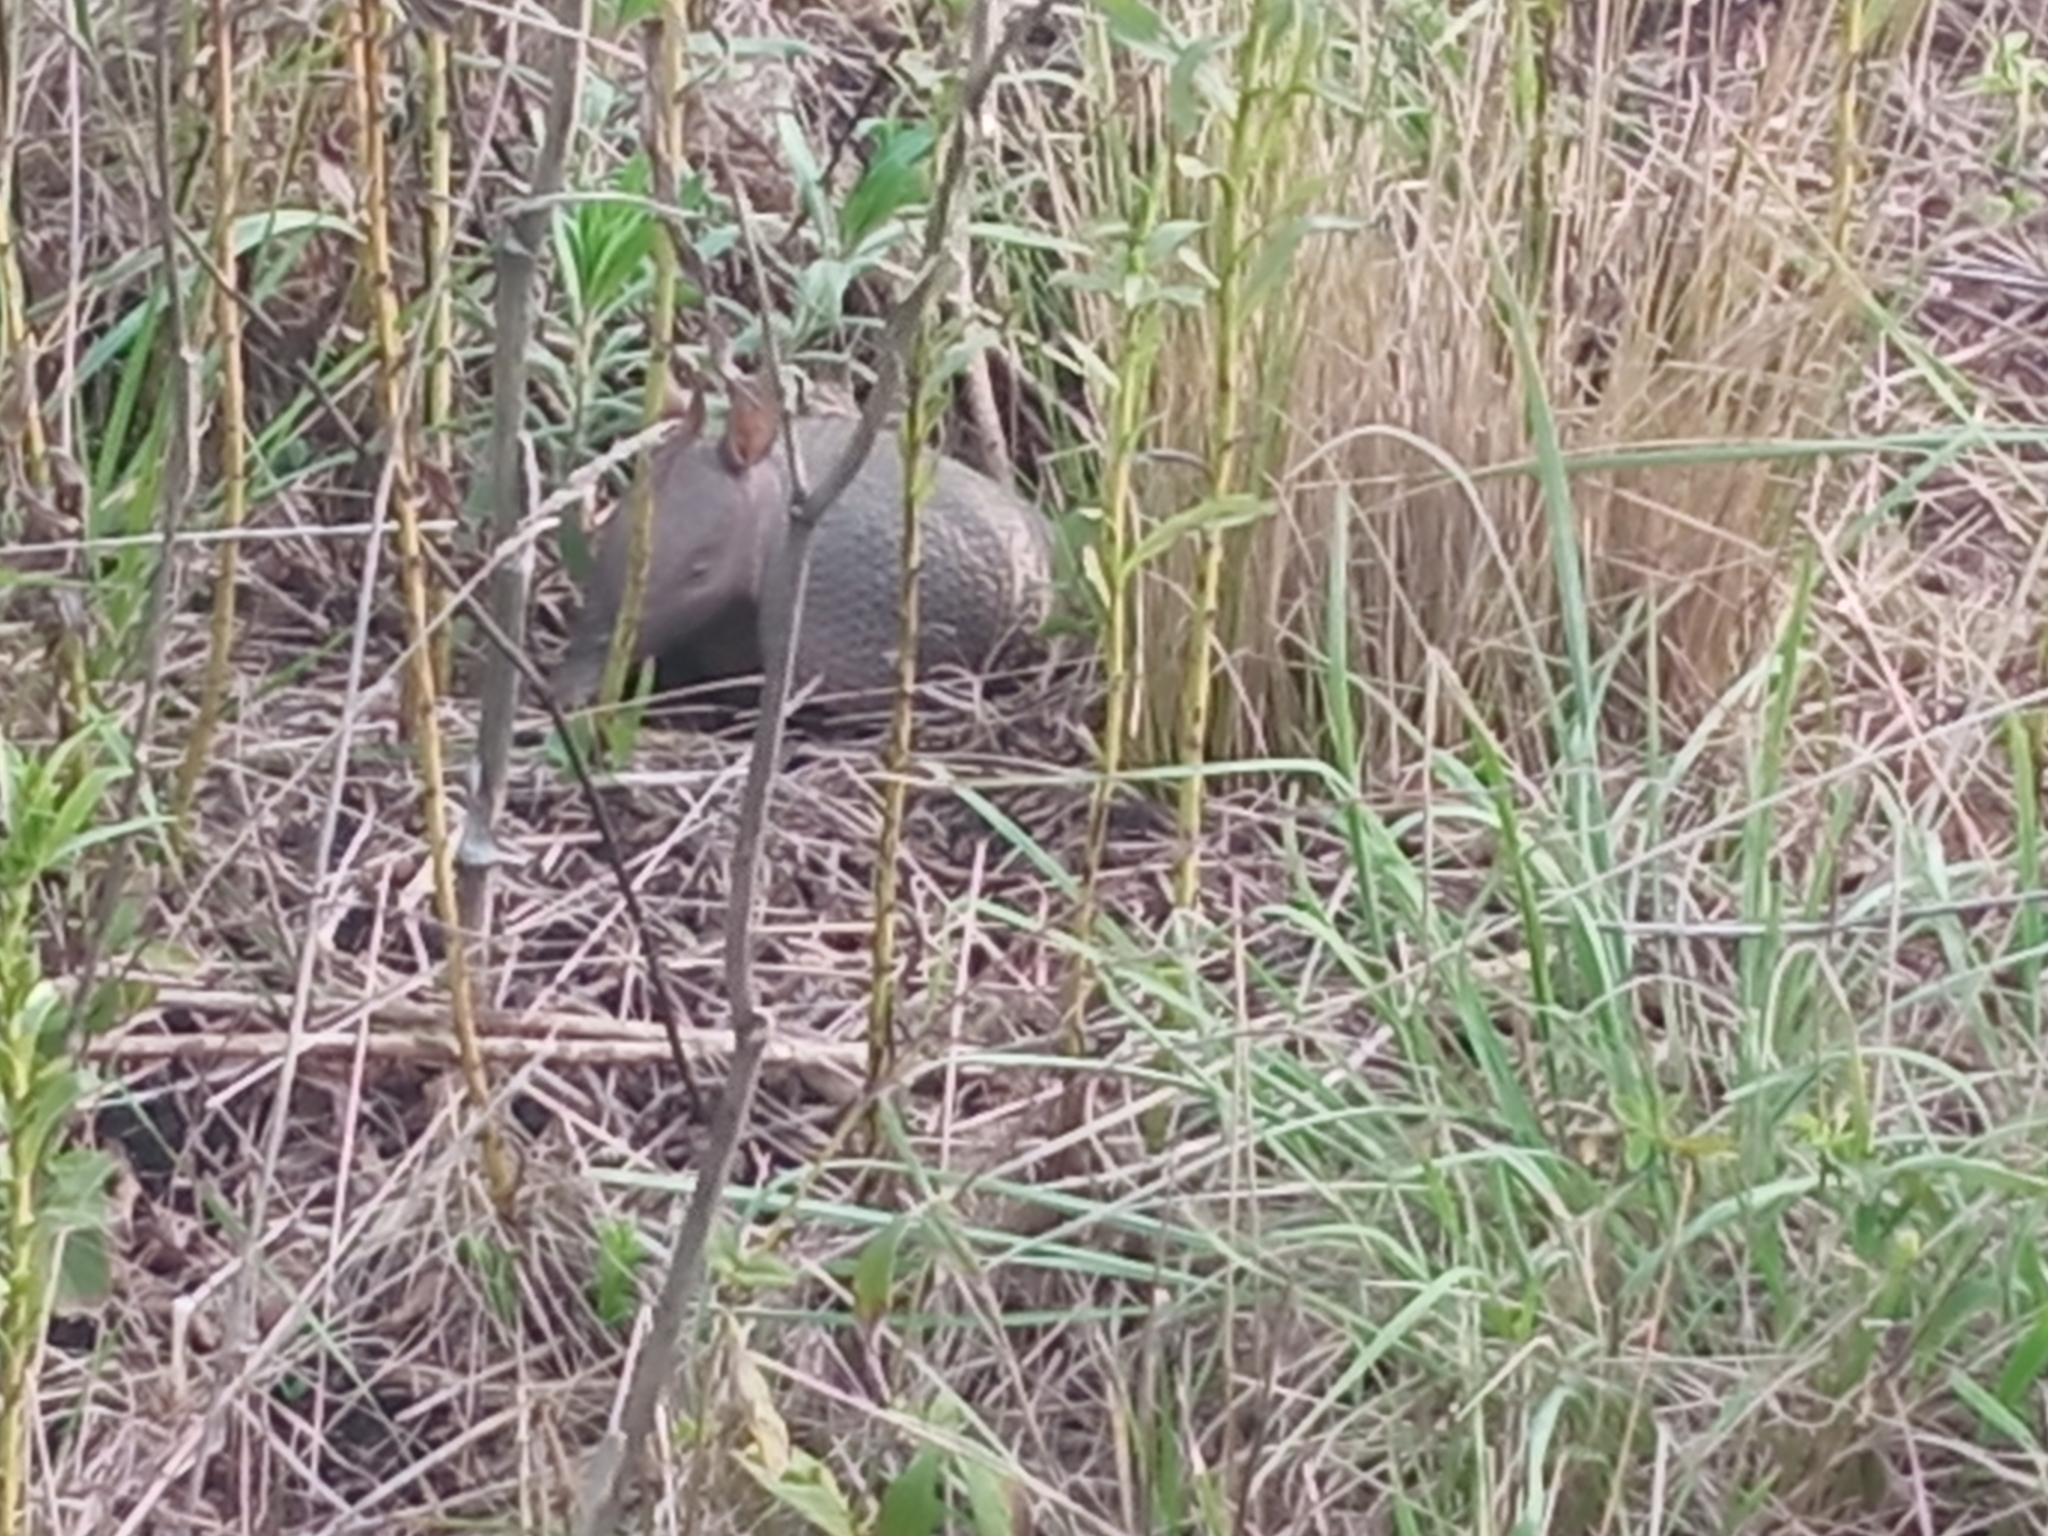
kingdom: Animalia
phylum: Chordata
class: Mammalia
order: Cingulata
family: Dasypodidae
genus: Dasypus
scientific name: Dasypus septemcinctus
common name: Seven-banded armadillo
